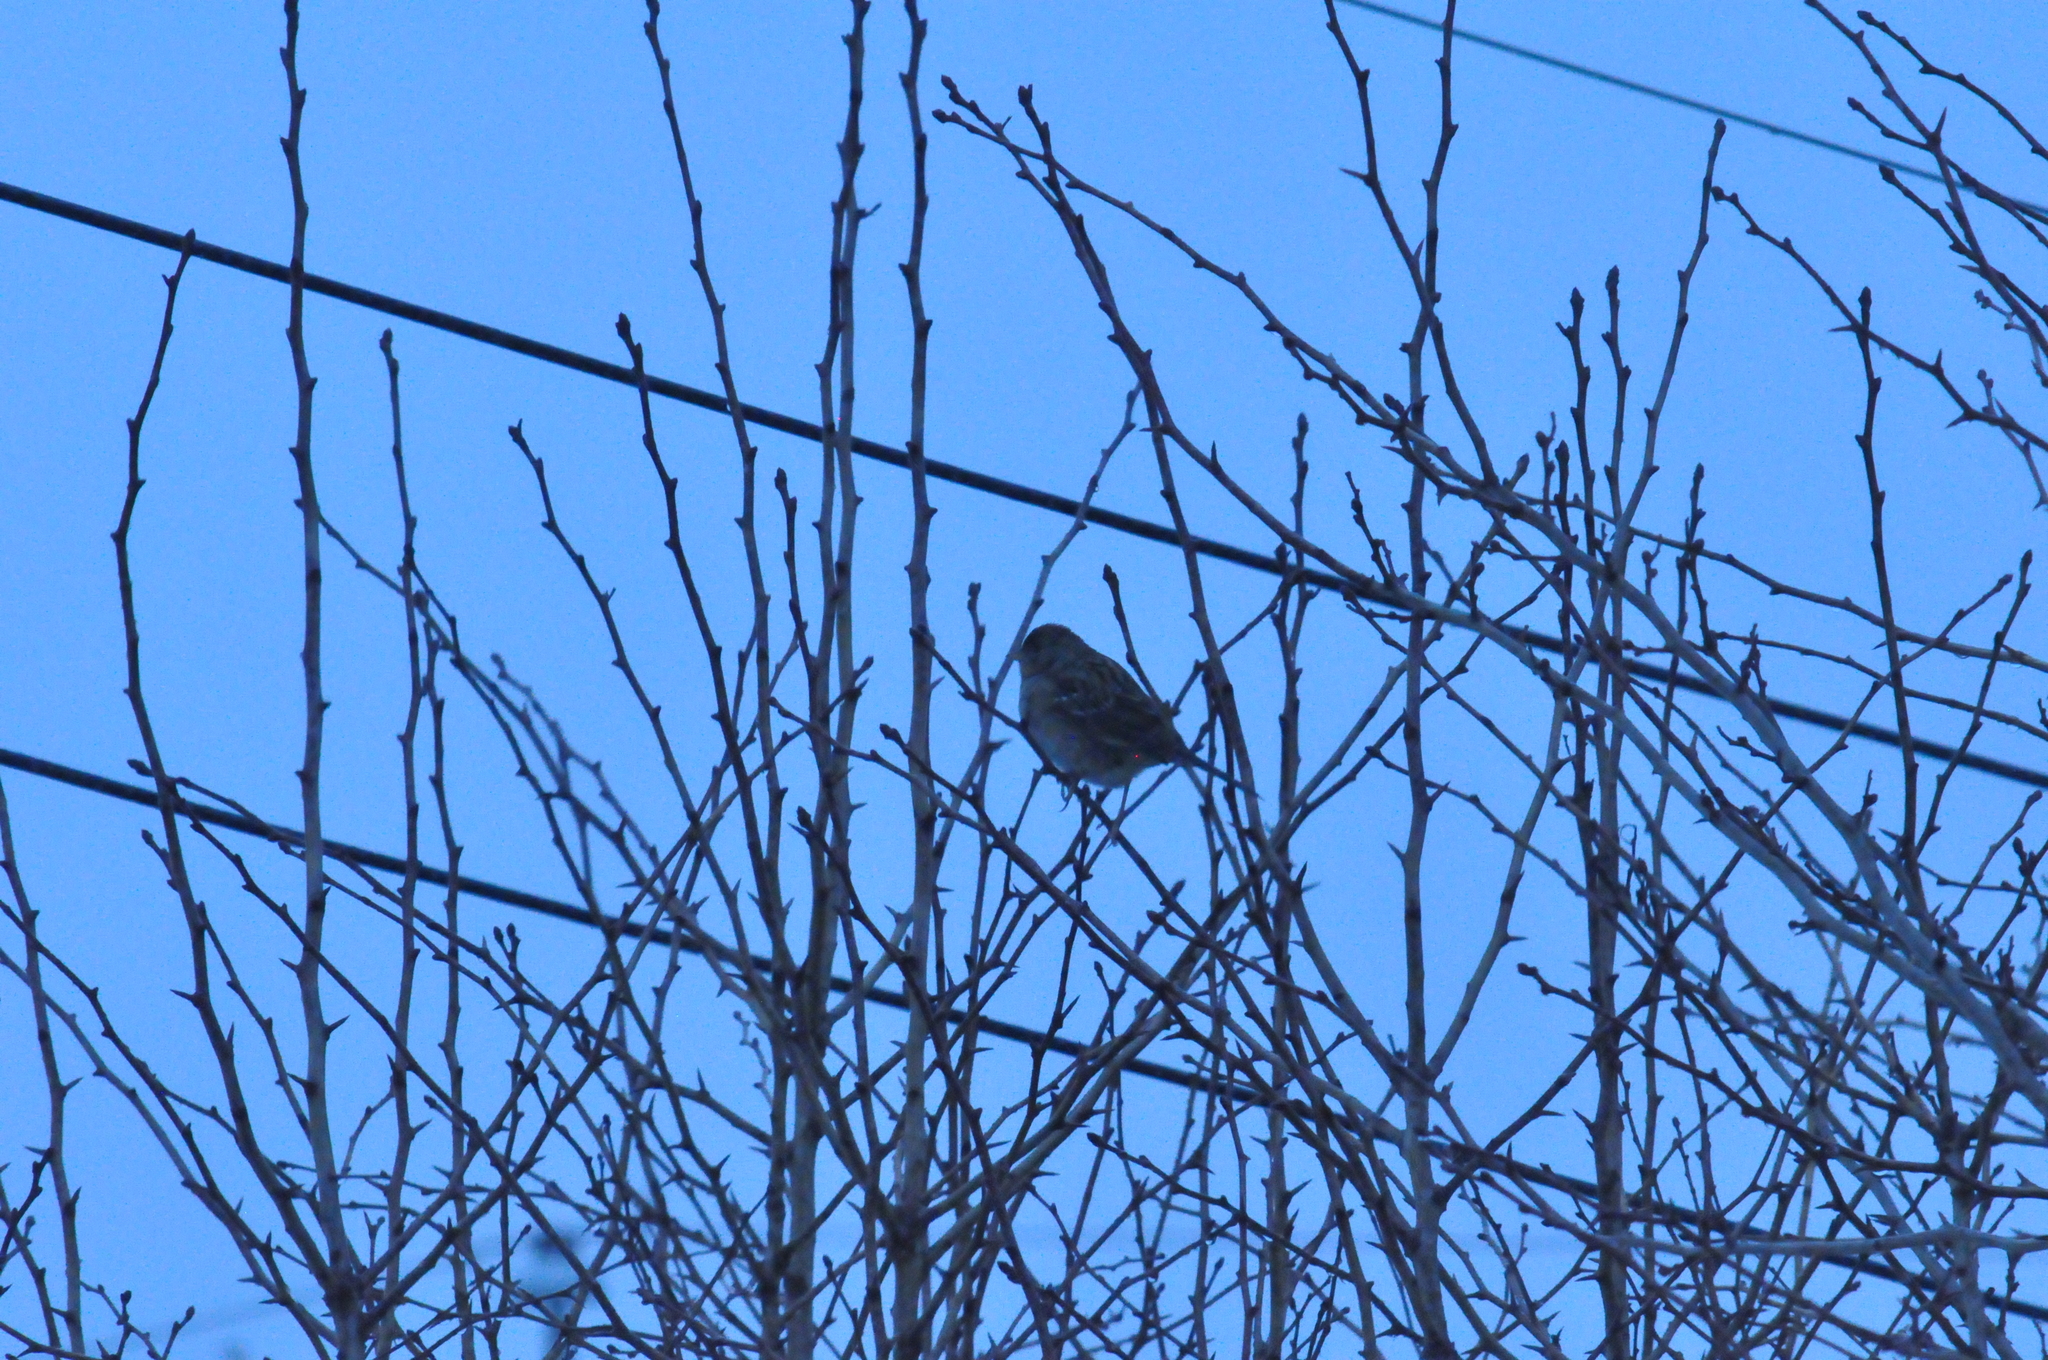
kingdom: Animalia
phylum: Chordata
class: Aves
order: Passeriformes
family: Passerellidae
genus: Zonotrichia
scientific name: Zonotrichia atricapilla
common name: Golden-crowned sparrow
